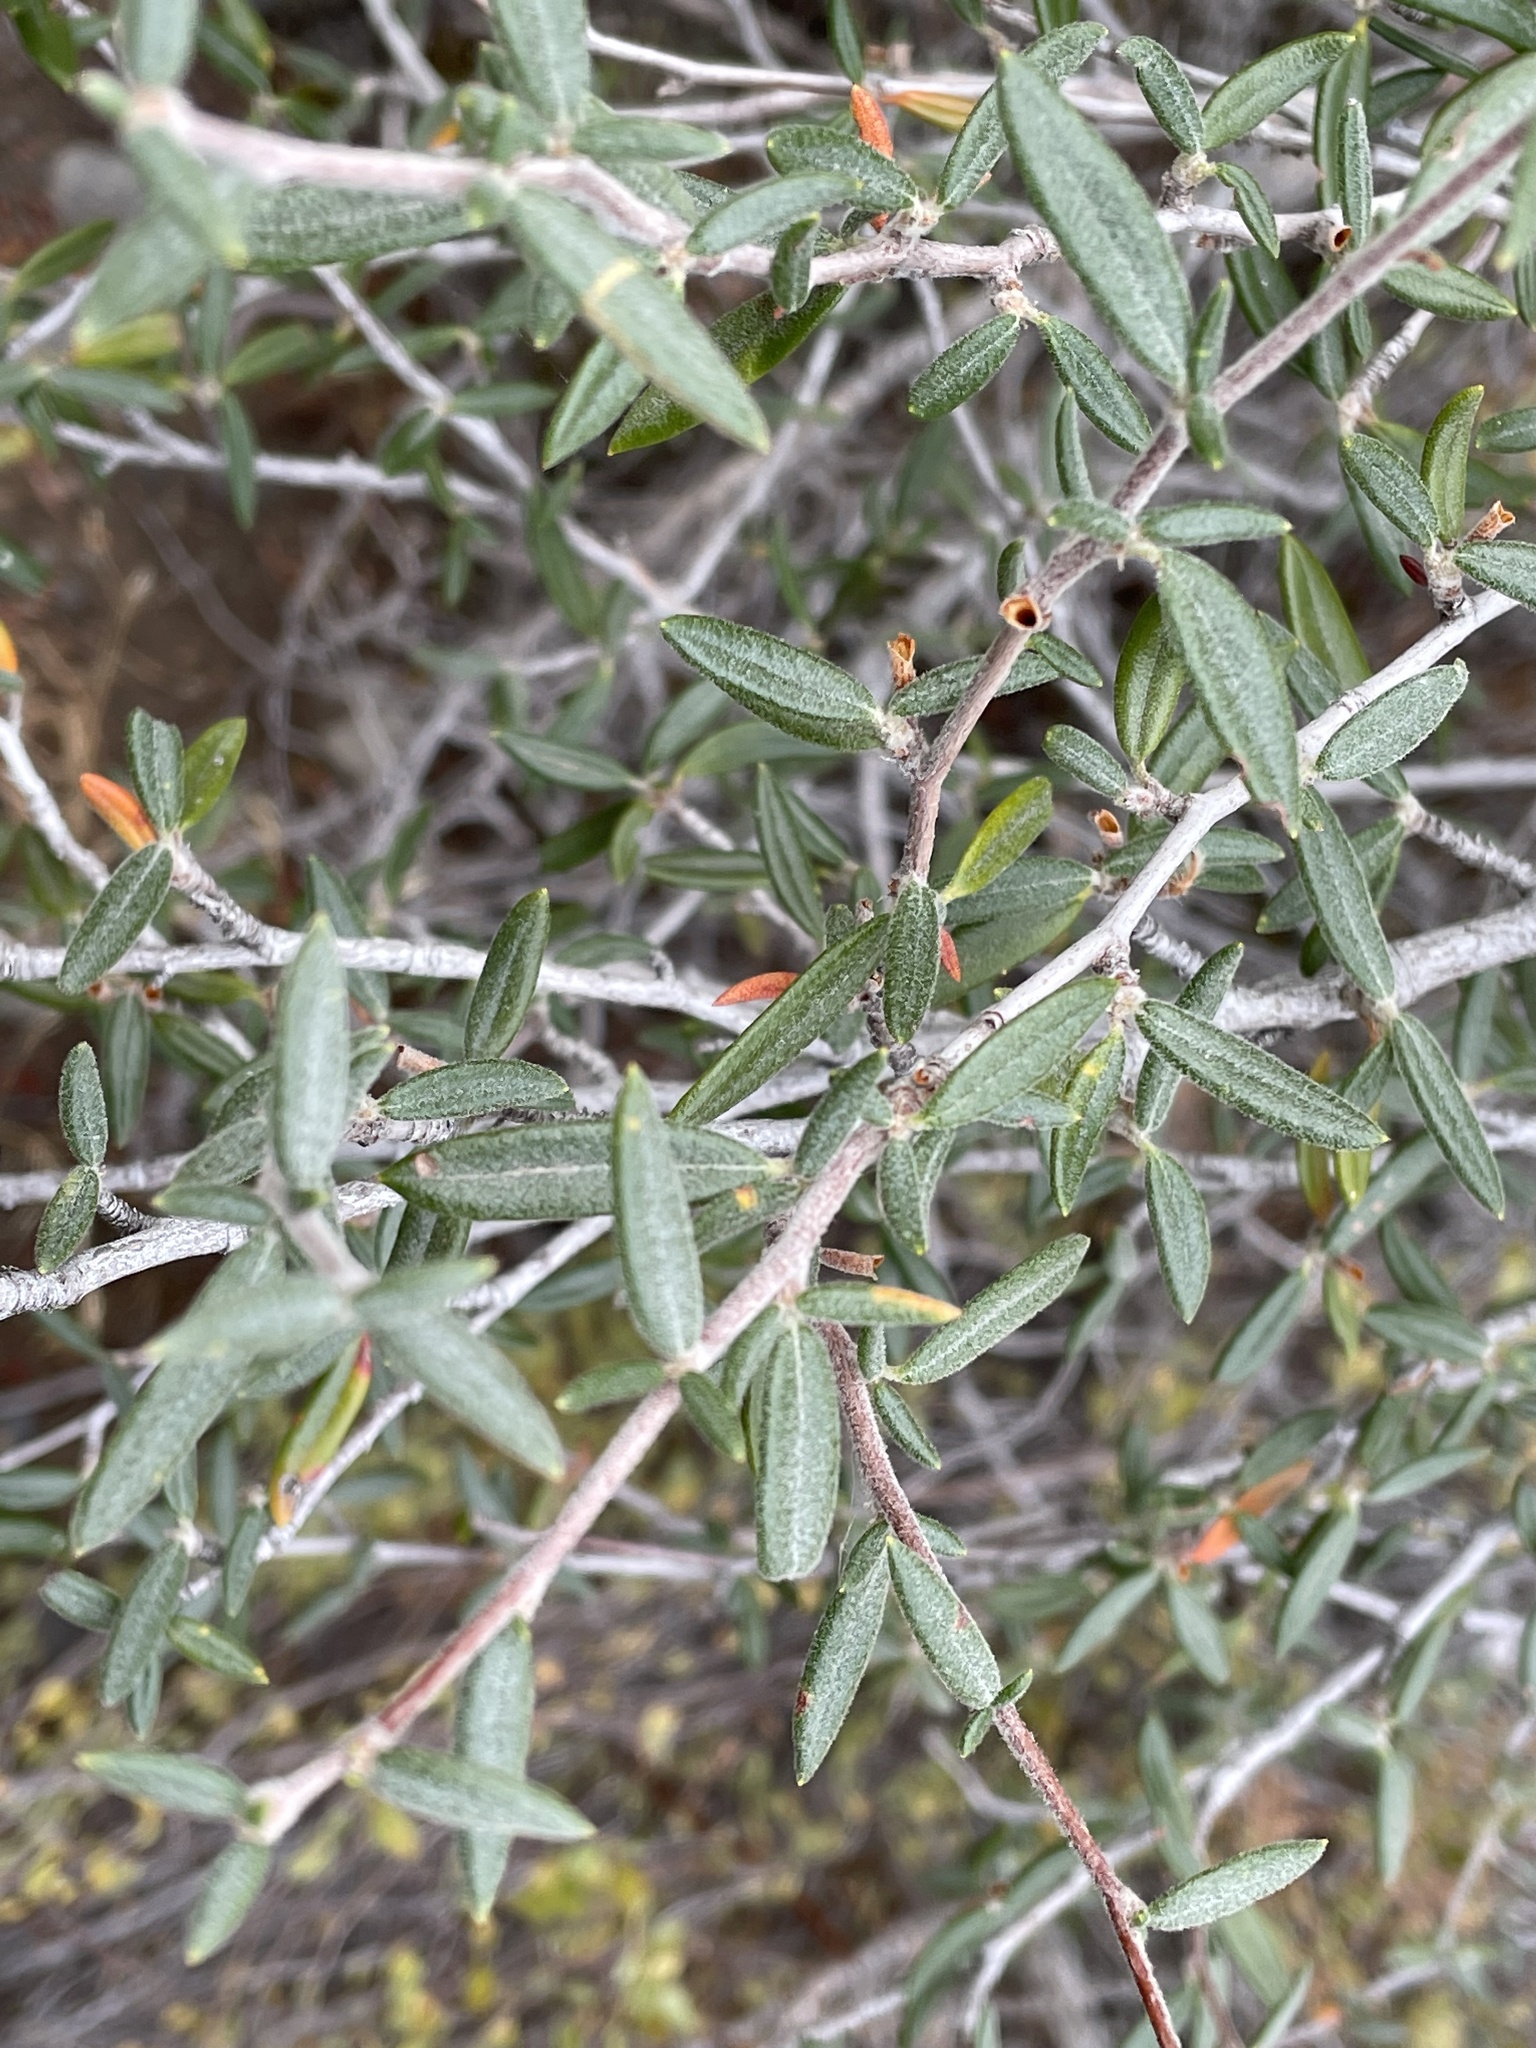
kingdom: Plantae
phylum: Tracheophyta
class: Magnoliopsida
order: Rosales
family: Rosaceae
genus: Cercocarpus
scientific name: Cercocarpus ledifolius
